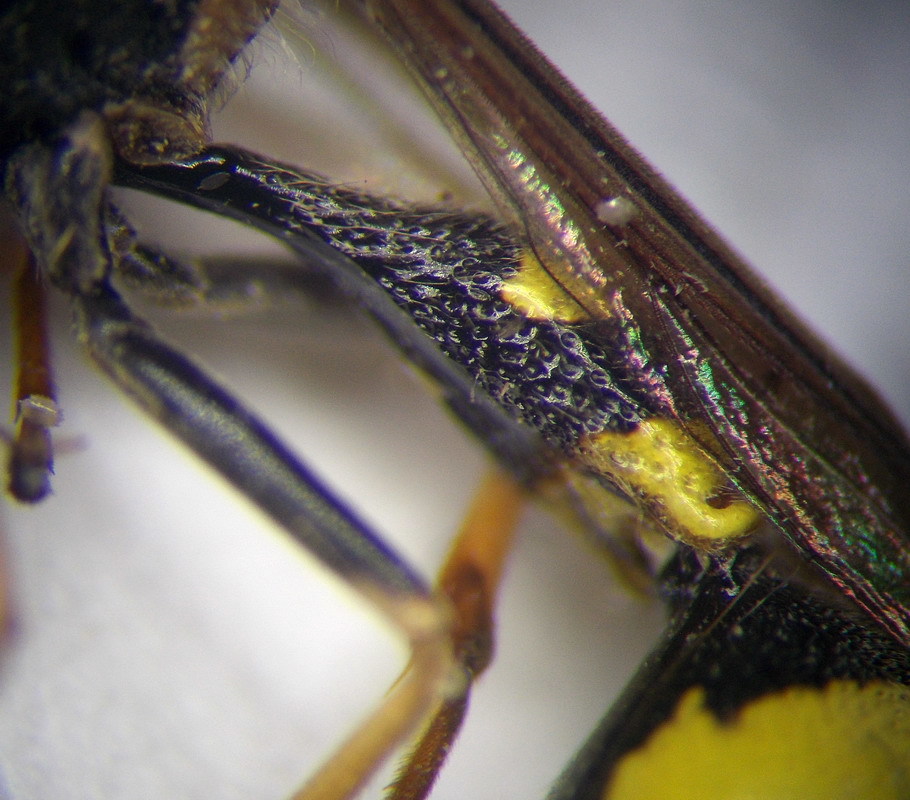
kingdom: Animalia
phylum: Arthropoda
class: Insecta
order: Hymenoptera
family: Vespidae
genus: Eumenes
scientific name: Eumenes mediterraneus
